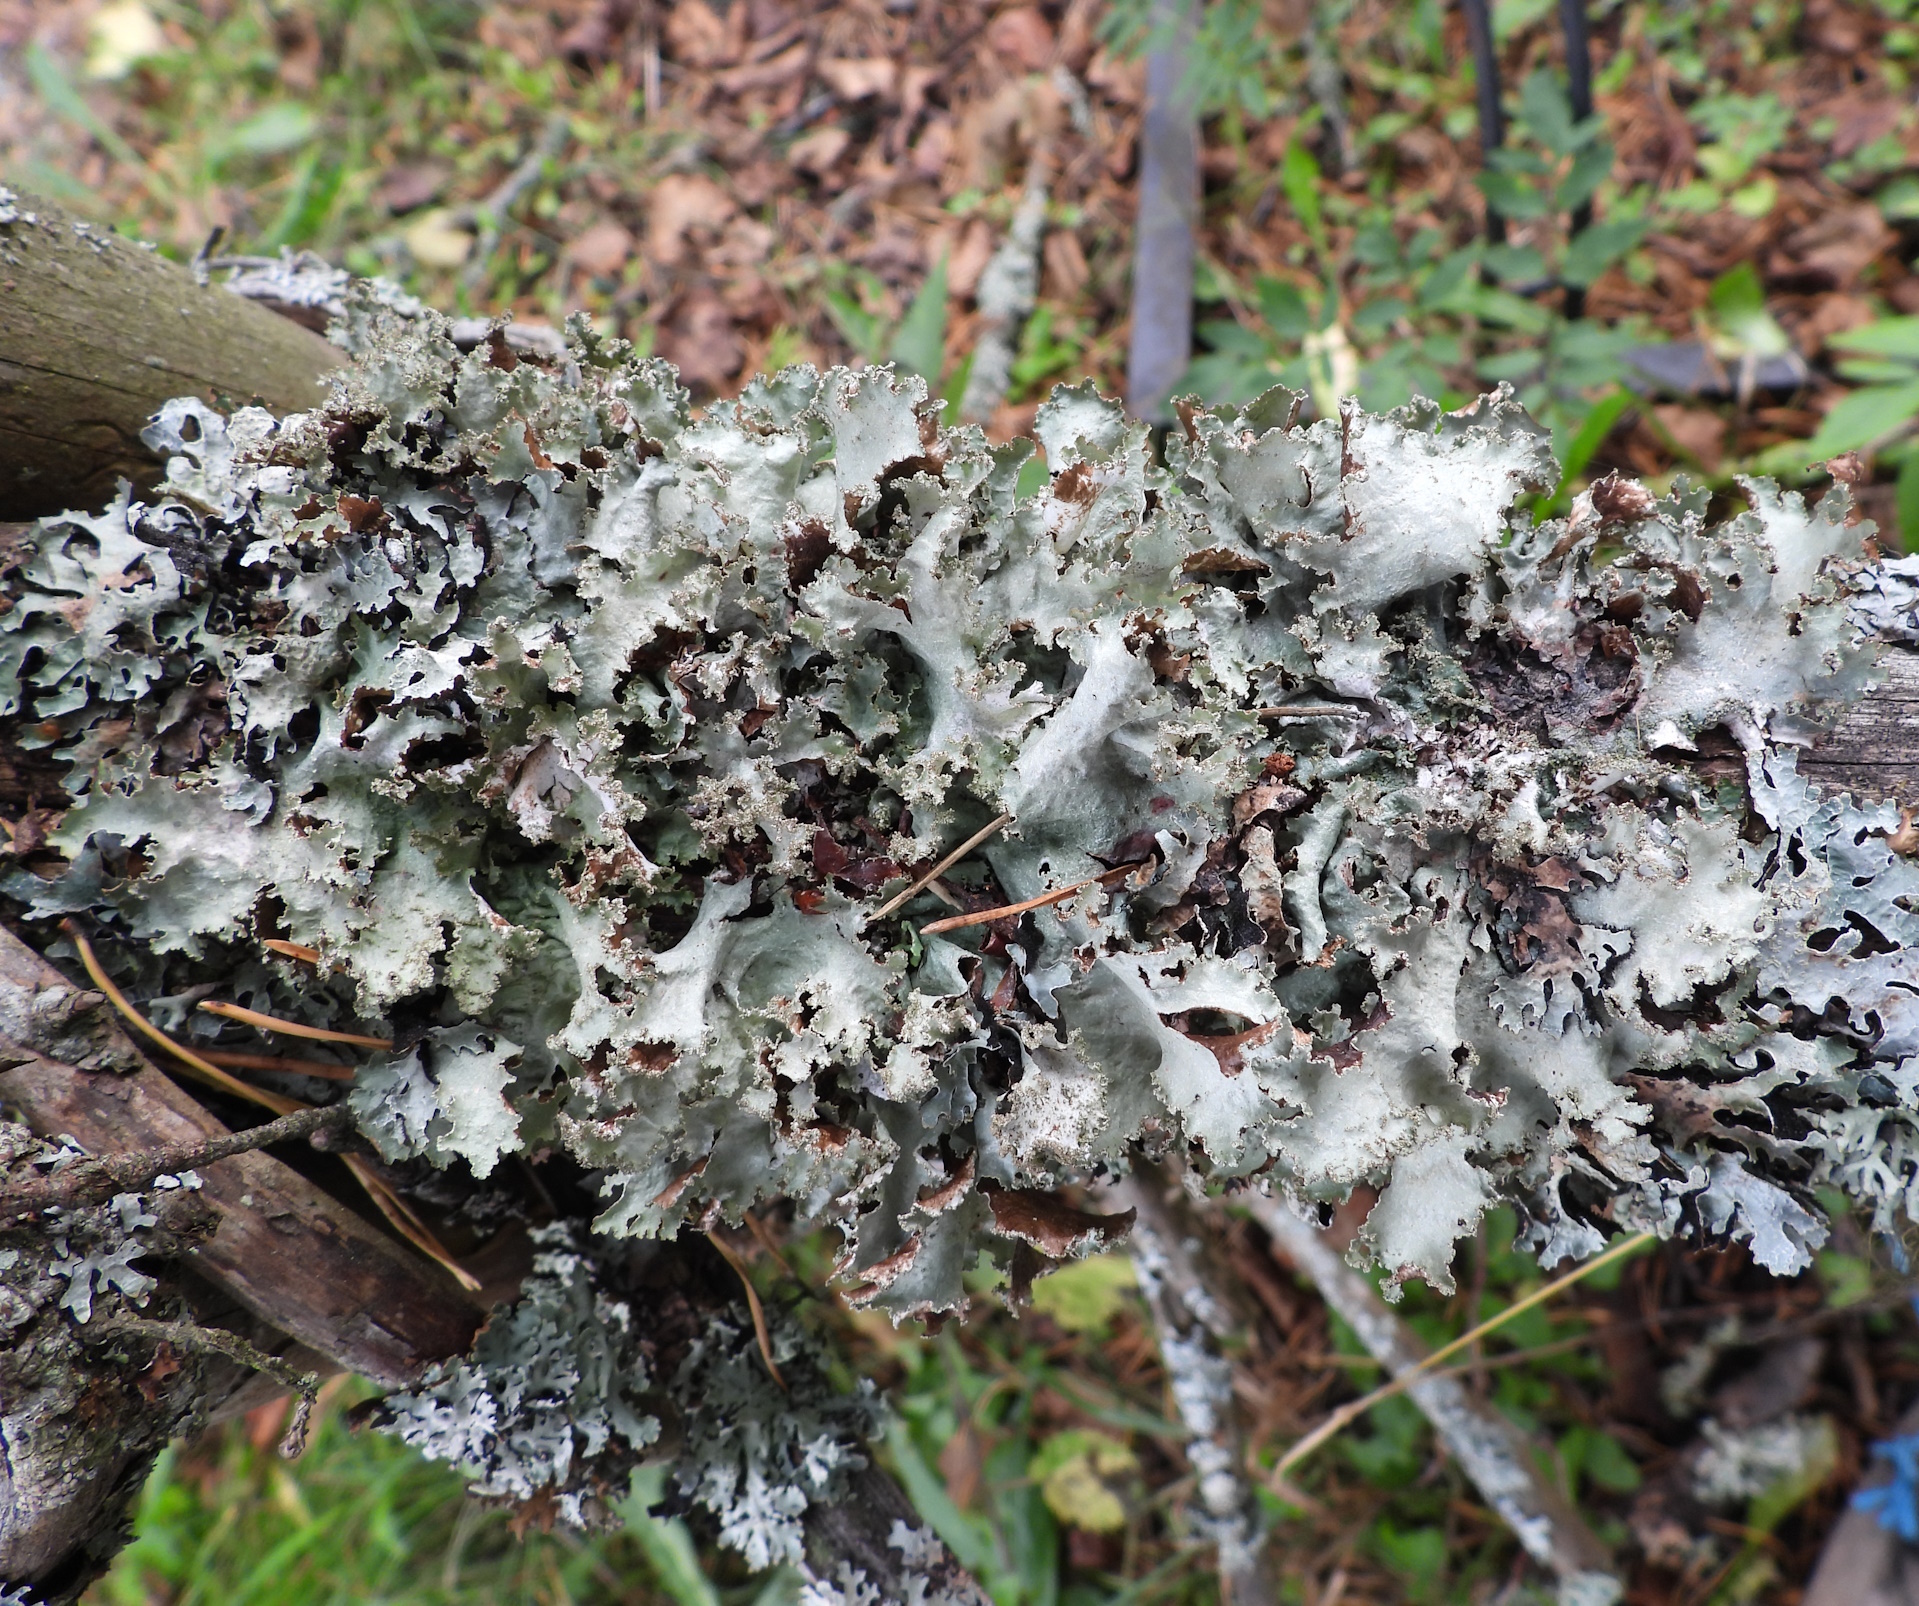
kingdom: Fungi
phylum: Ascomycota
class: Lecanoromycetes
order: Lecanorales
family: Parmeliaceae
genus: Platismatia
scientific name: Platismatia glauca
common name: Varied rag lichen
